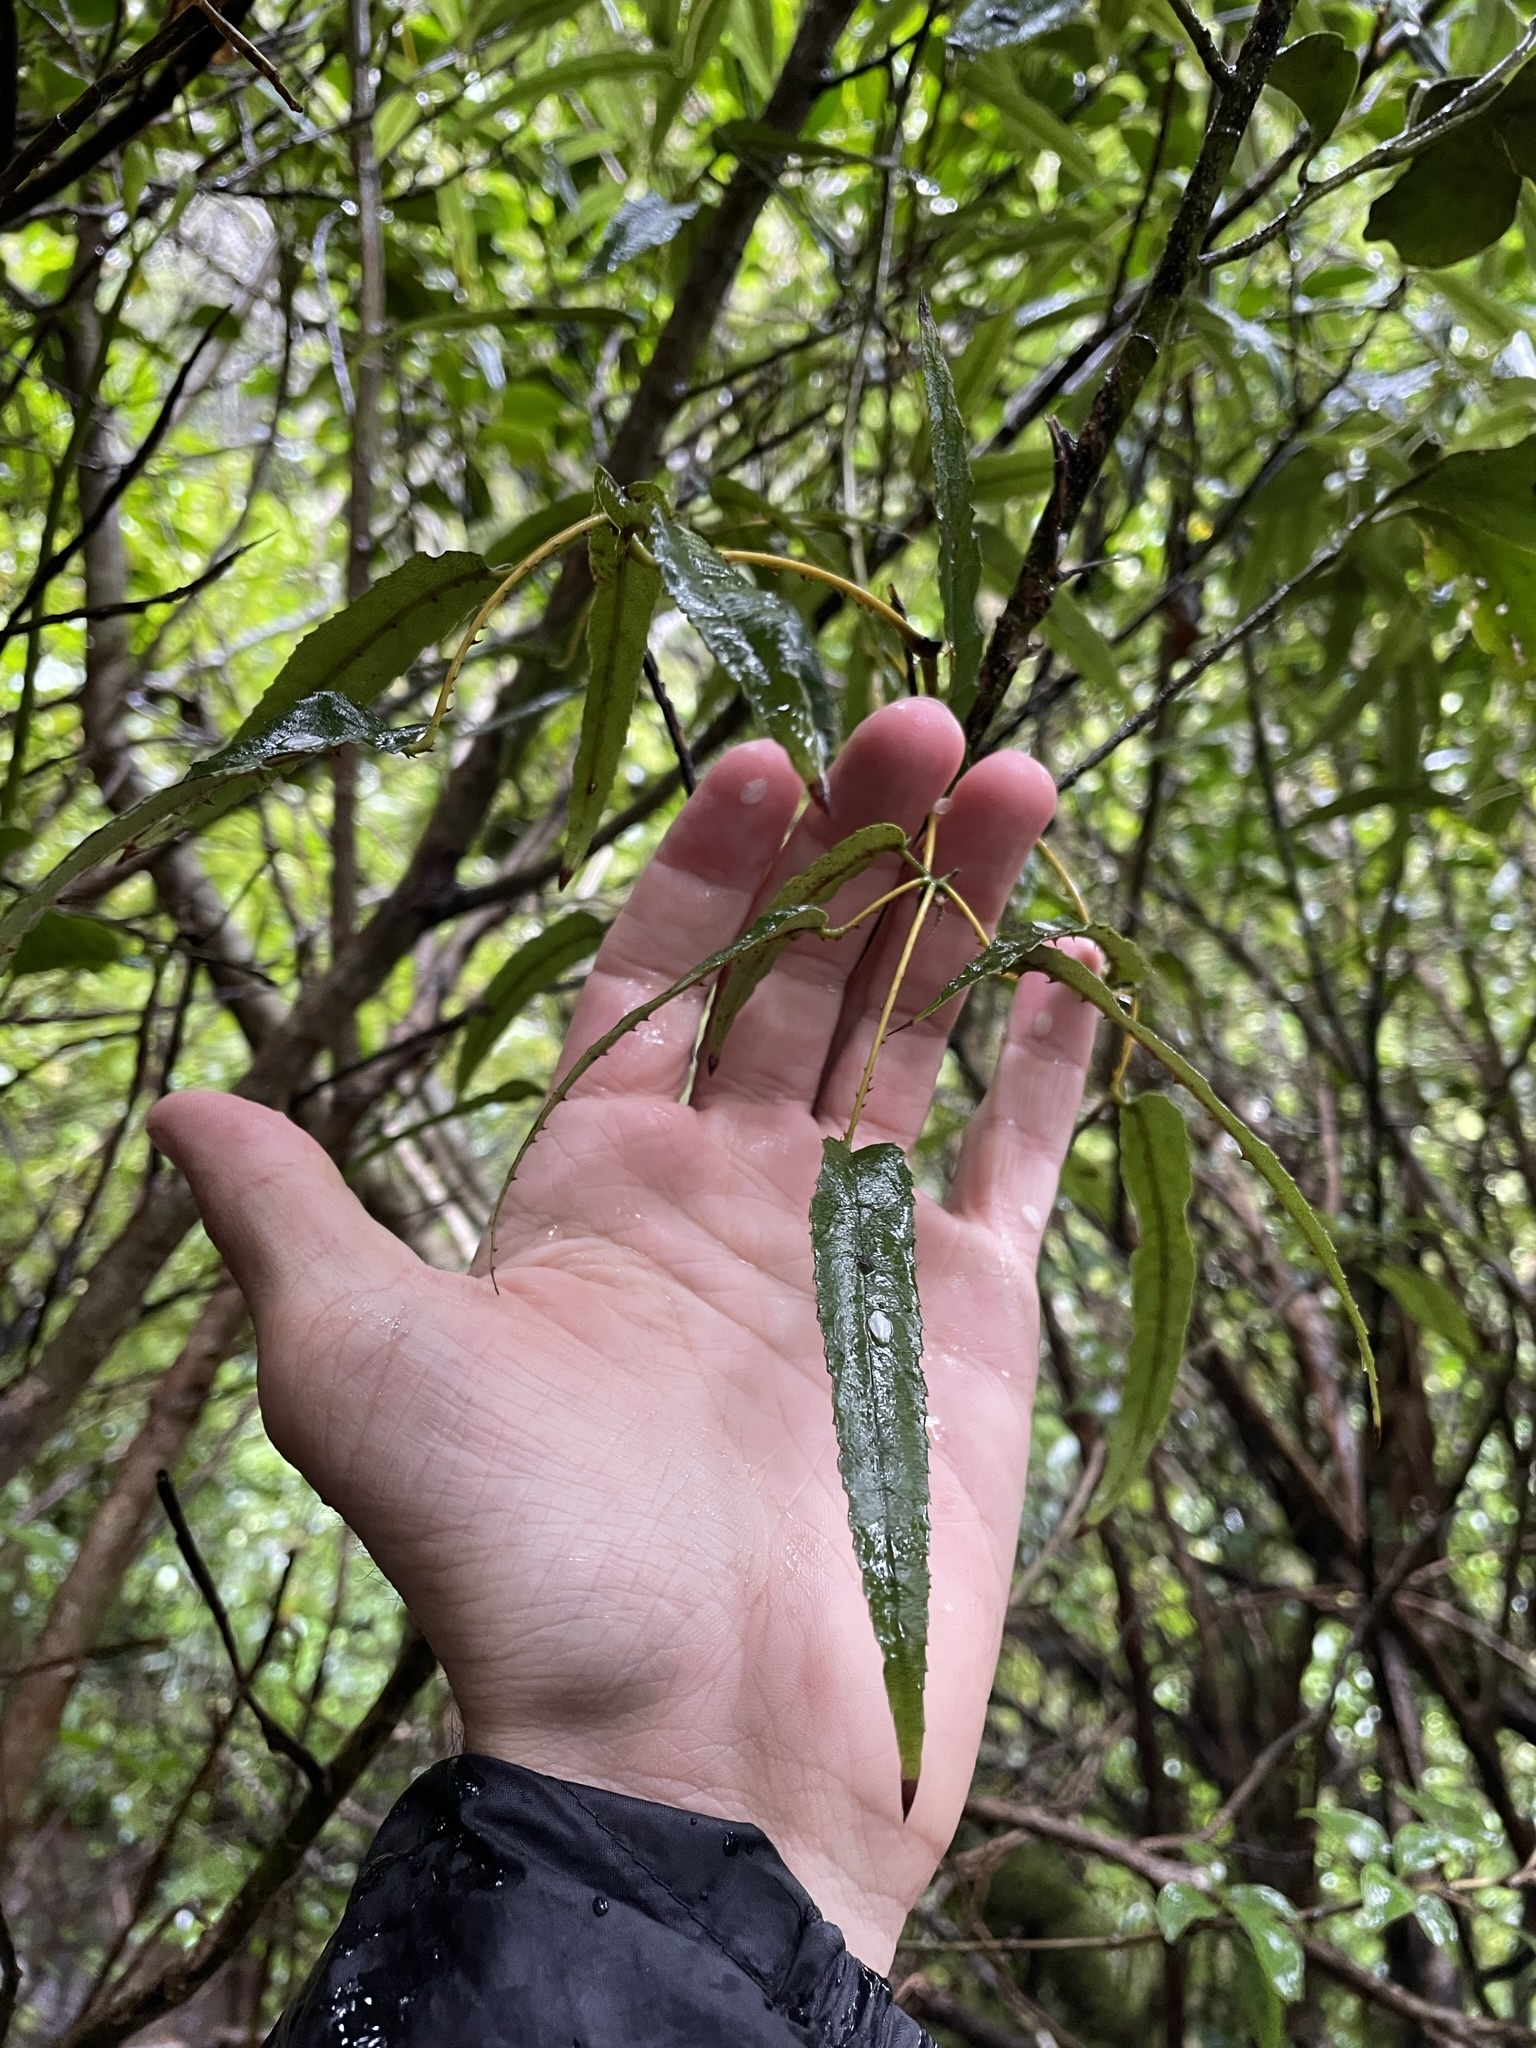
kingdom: Plantae
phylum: Tracheophyta
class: Magnoliopsida
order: Rosales
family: Rosaceae
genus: Rubus
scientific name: Rubus cissoides
